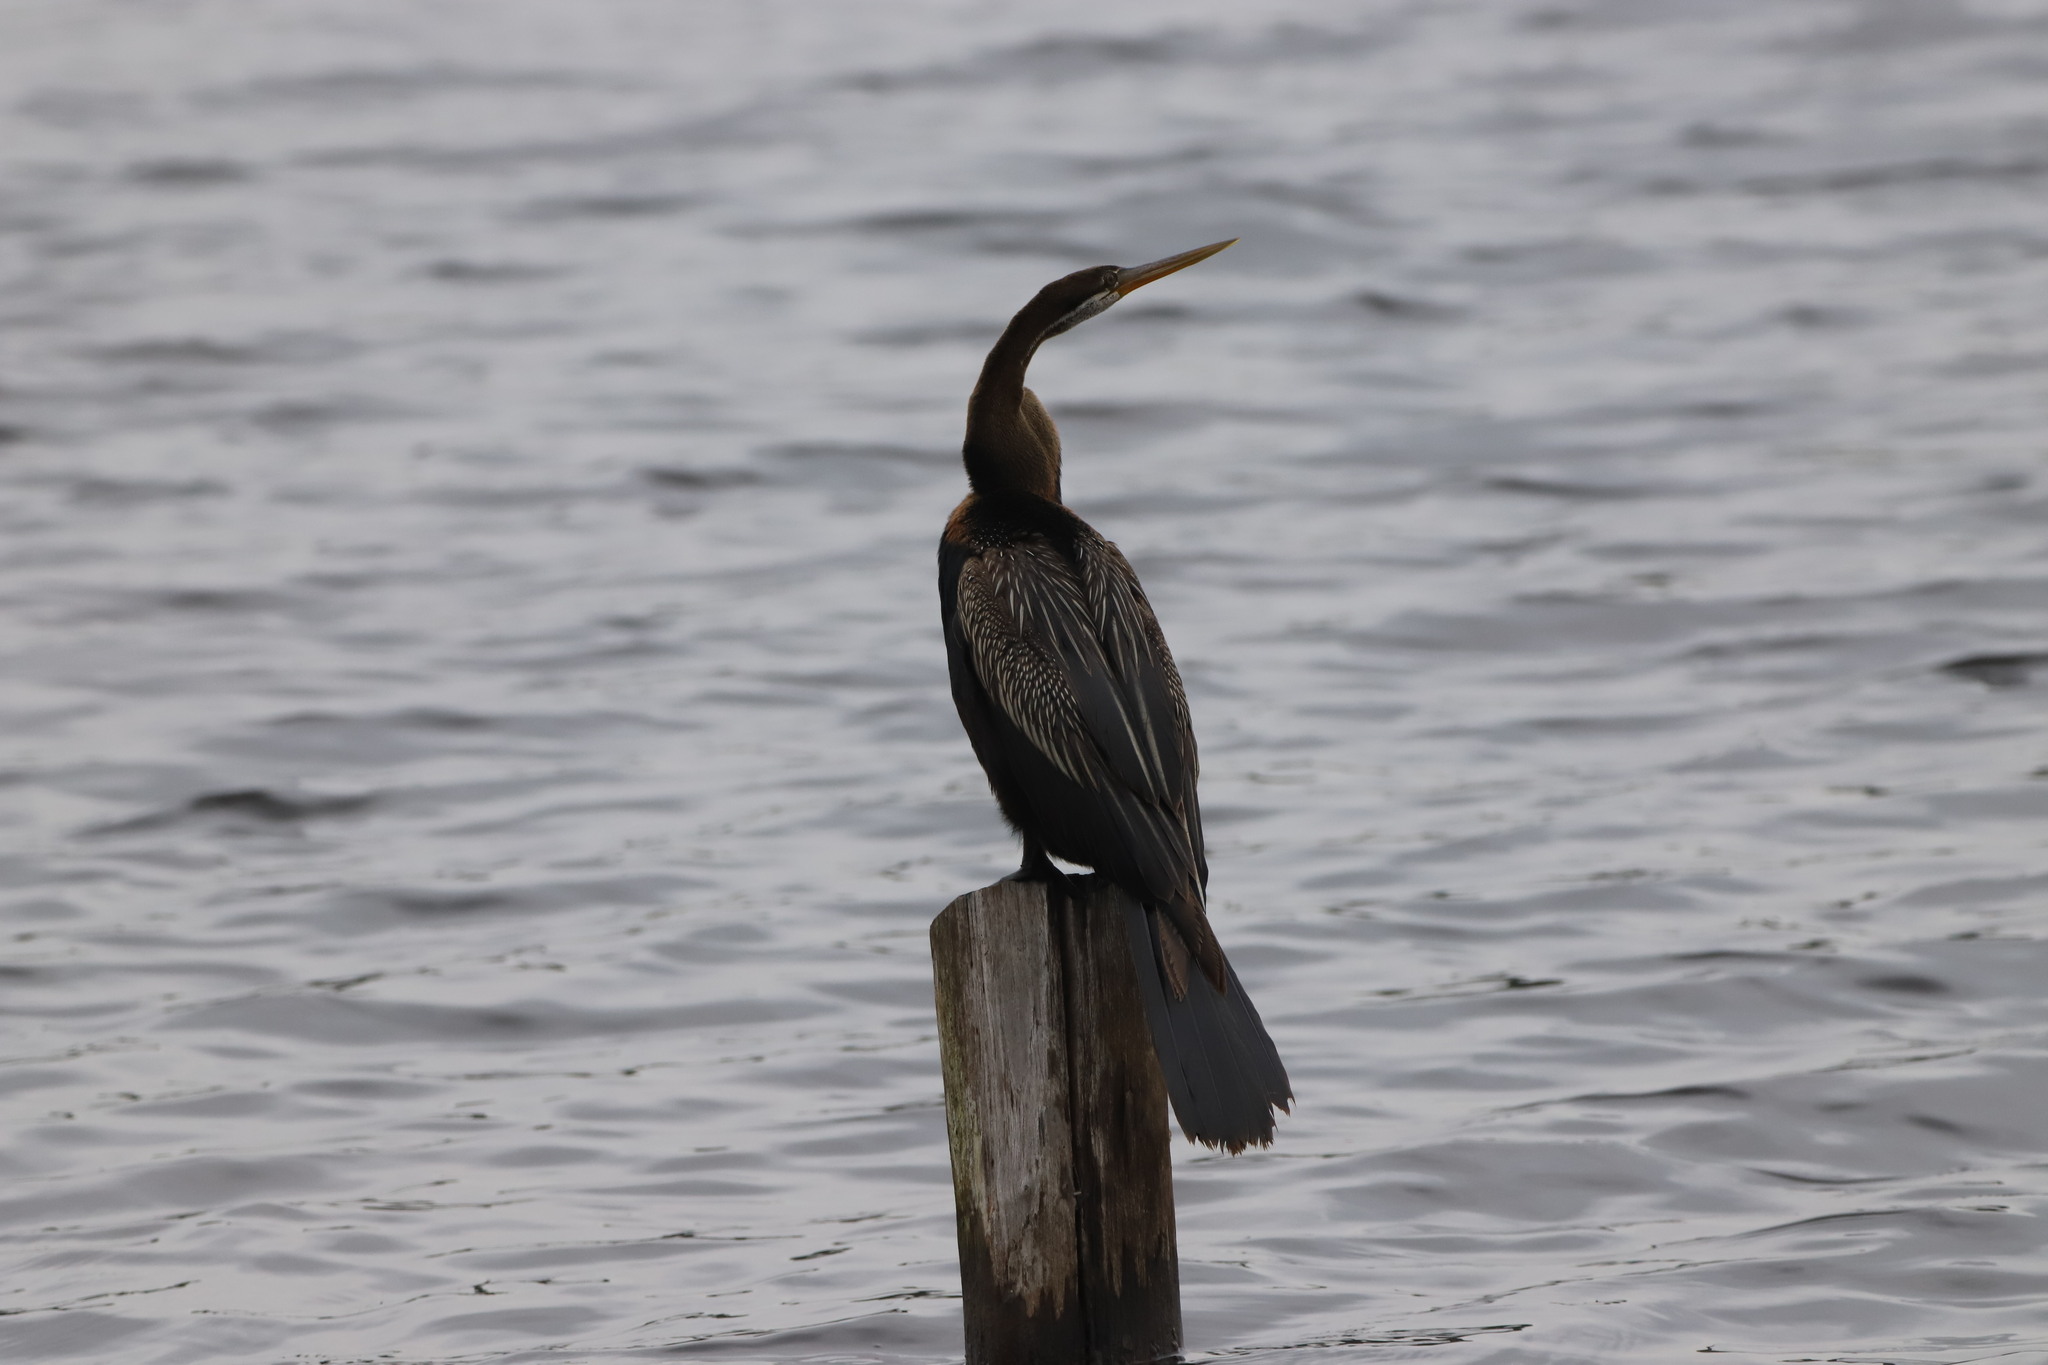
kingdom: Animalia
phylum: Chordata
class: Aves
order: Suliformes
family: Anhingidae
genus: Anhinga
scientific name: Anhinga melanogaster
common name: Oriental darter
